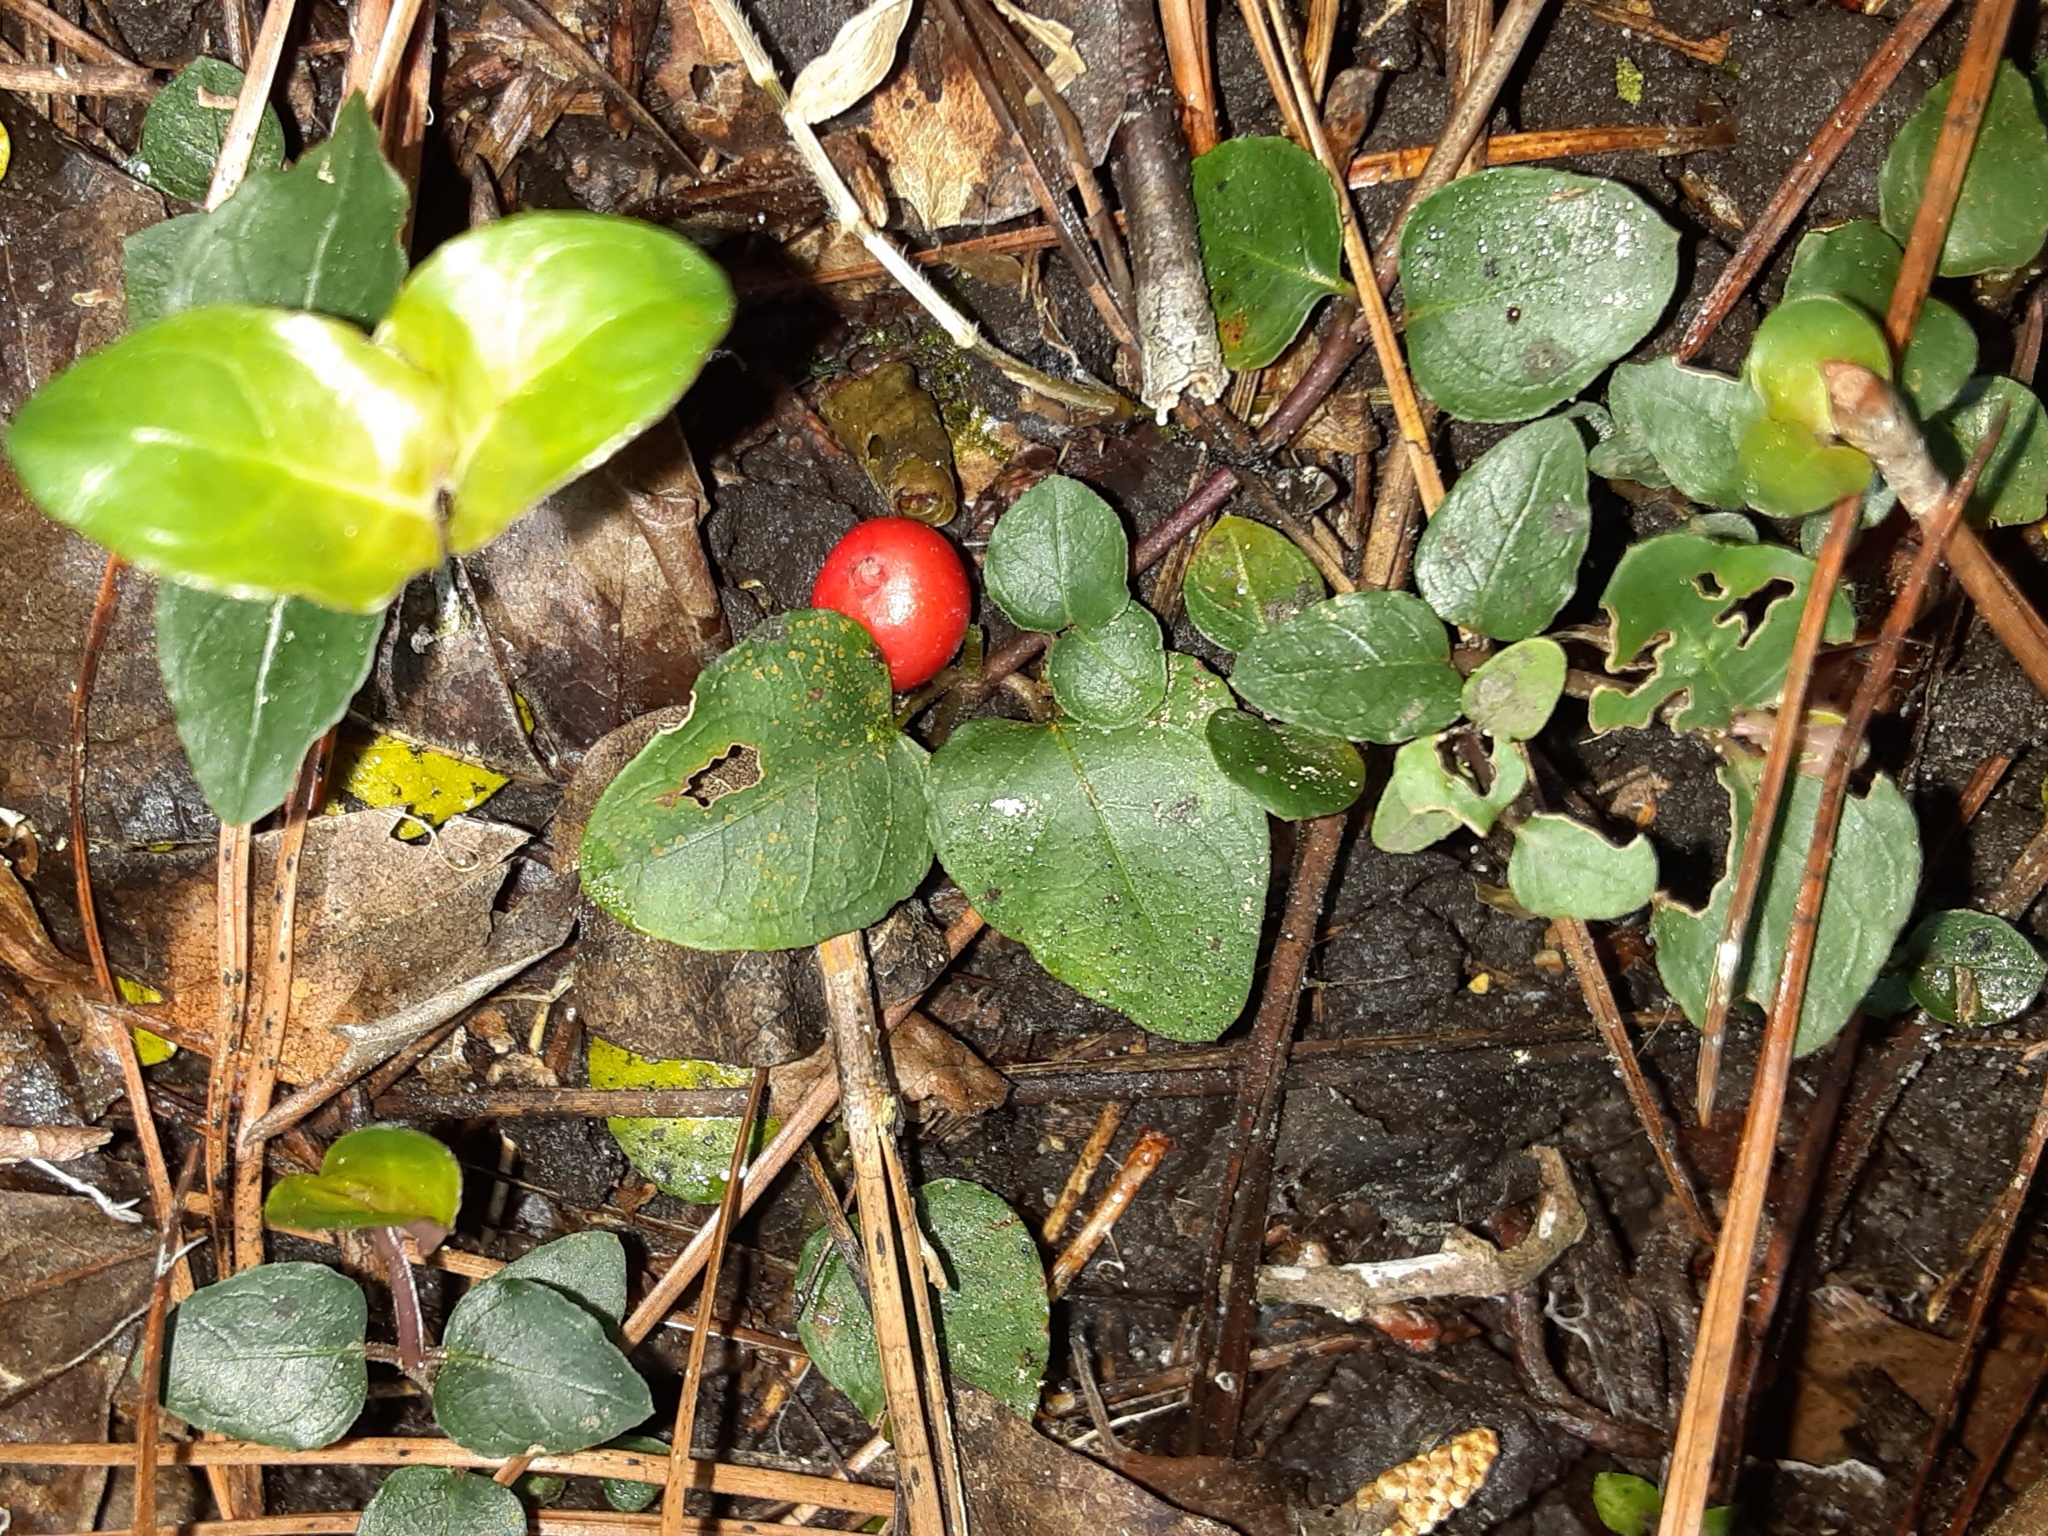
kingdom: Plantae
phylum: Tracheophyta
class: Magnoliopsida
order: Gentianales
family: Rubiaceae
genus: Mitchella
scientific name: Mitchella repens
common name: Partridge-berry
